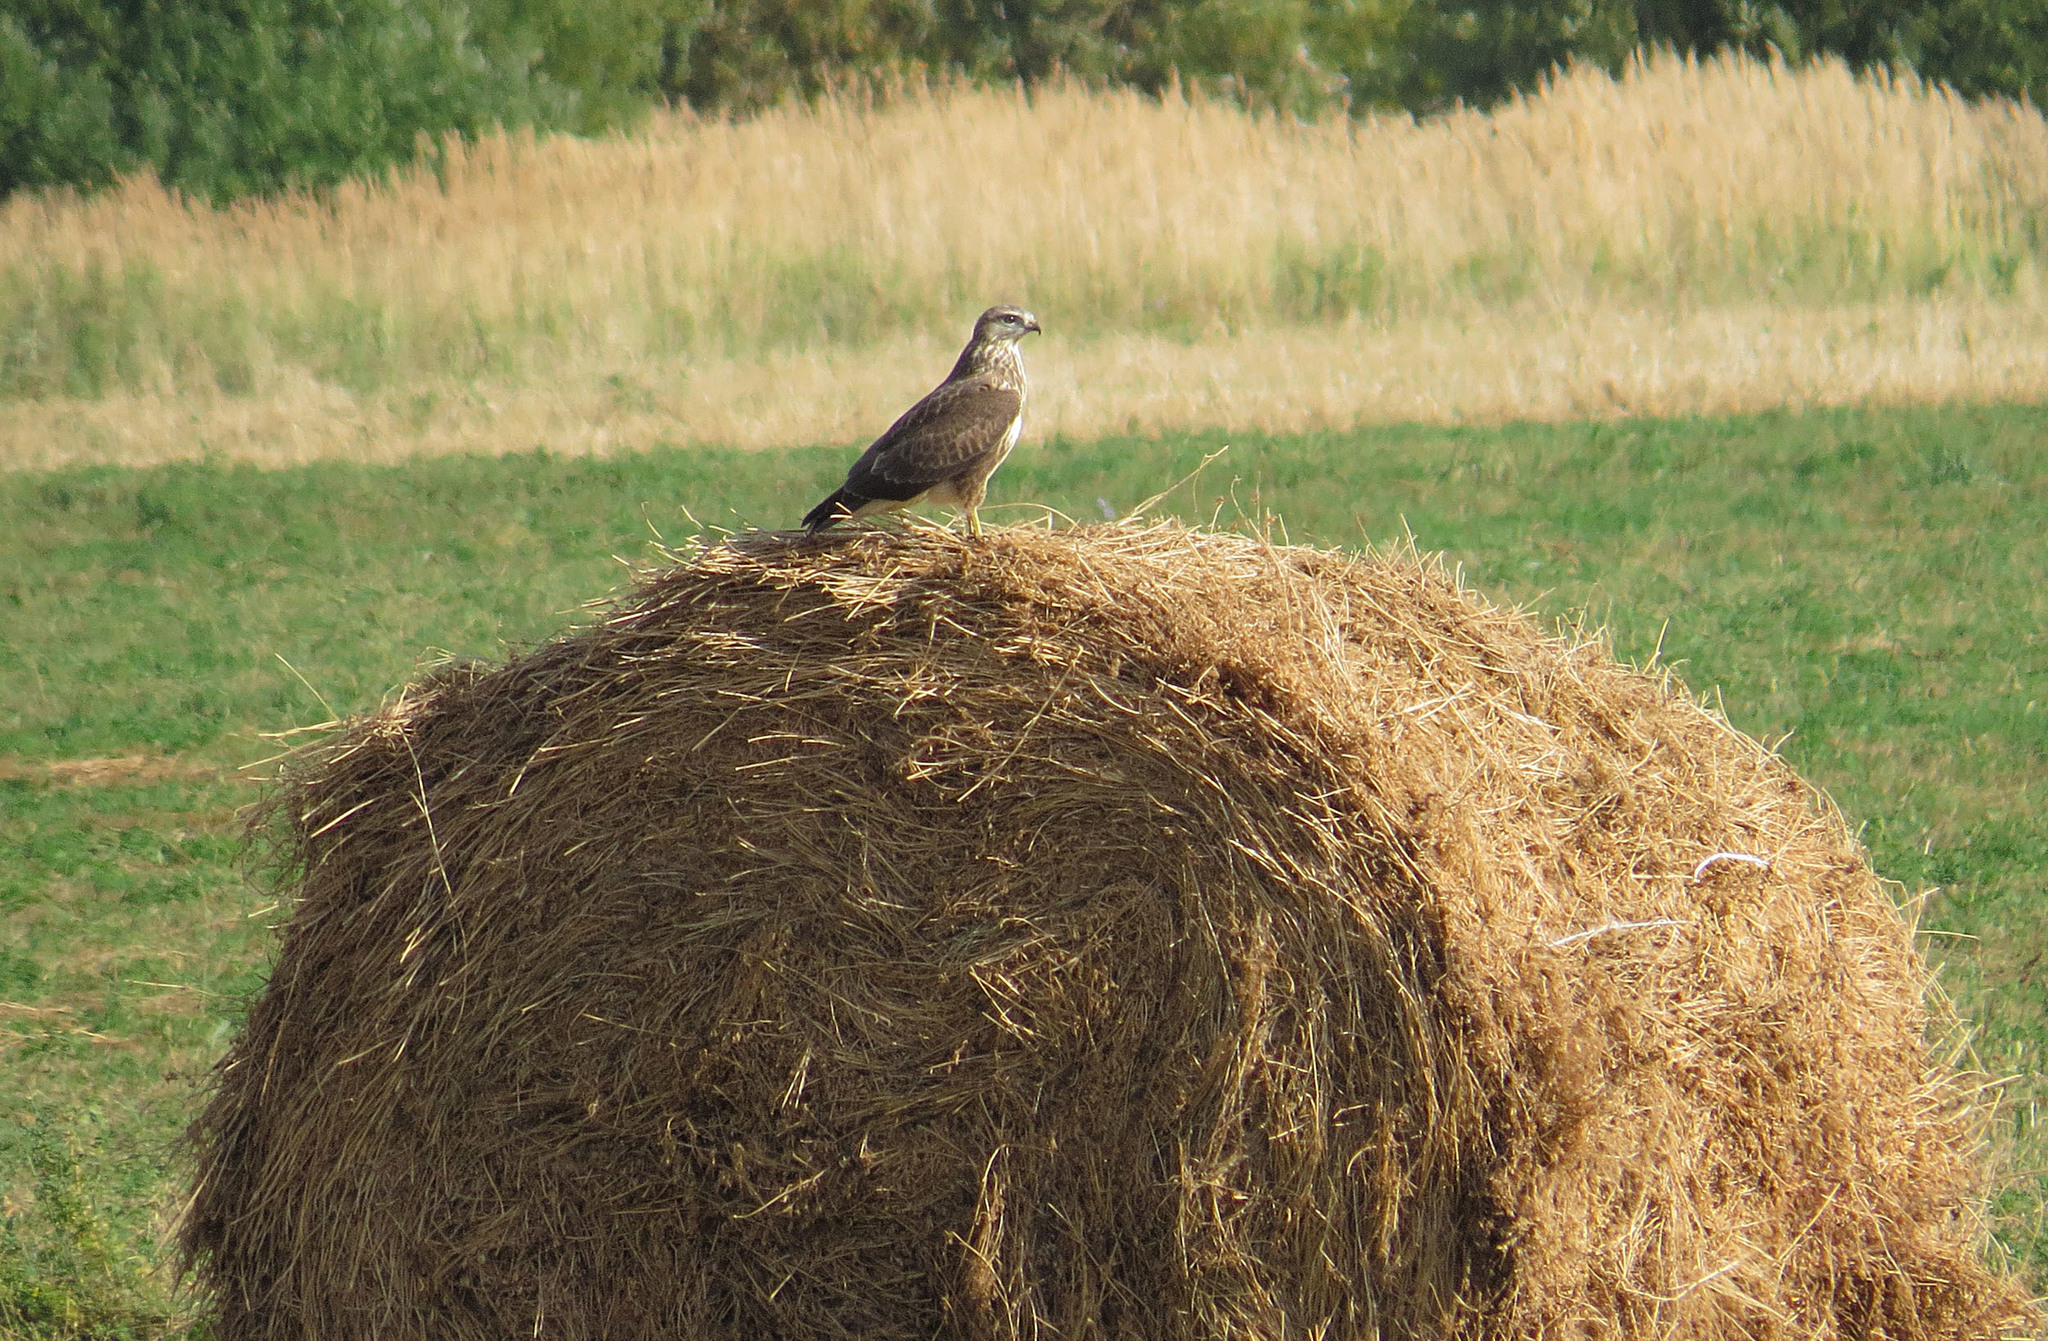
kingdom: Animalia
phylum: Chordata
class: Aves
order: Accipitriformes
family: Accipitridae
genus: Buteo
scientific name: Buteo buteo
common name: Common buzzard
